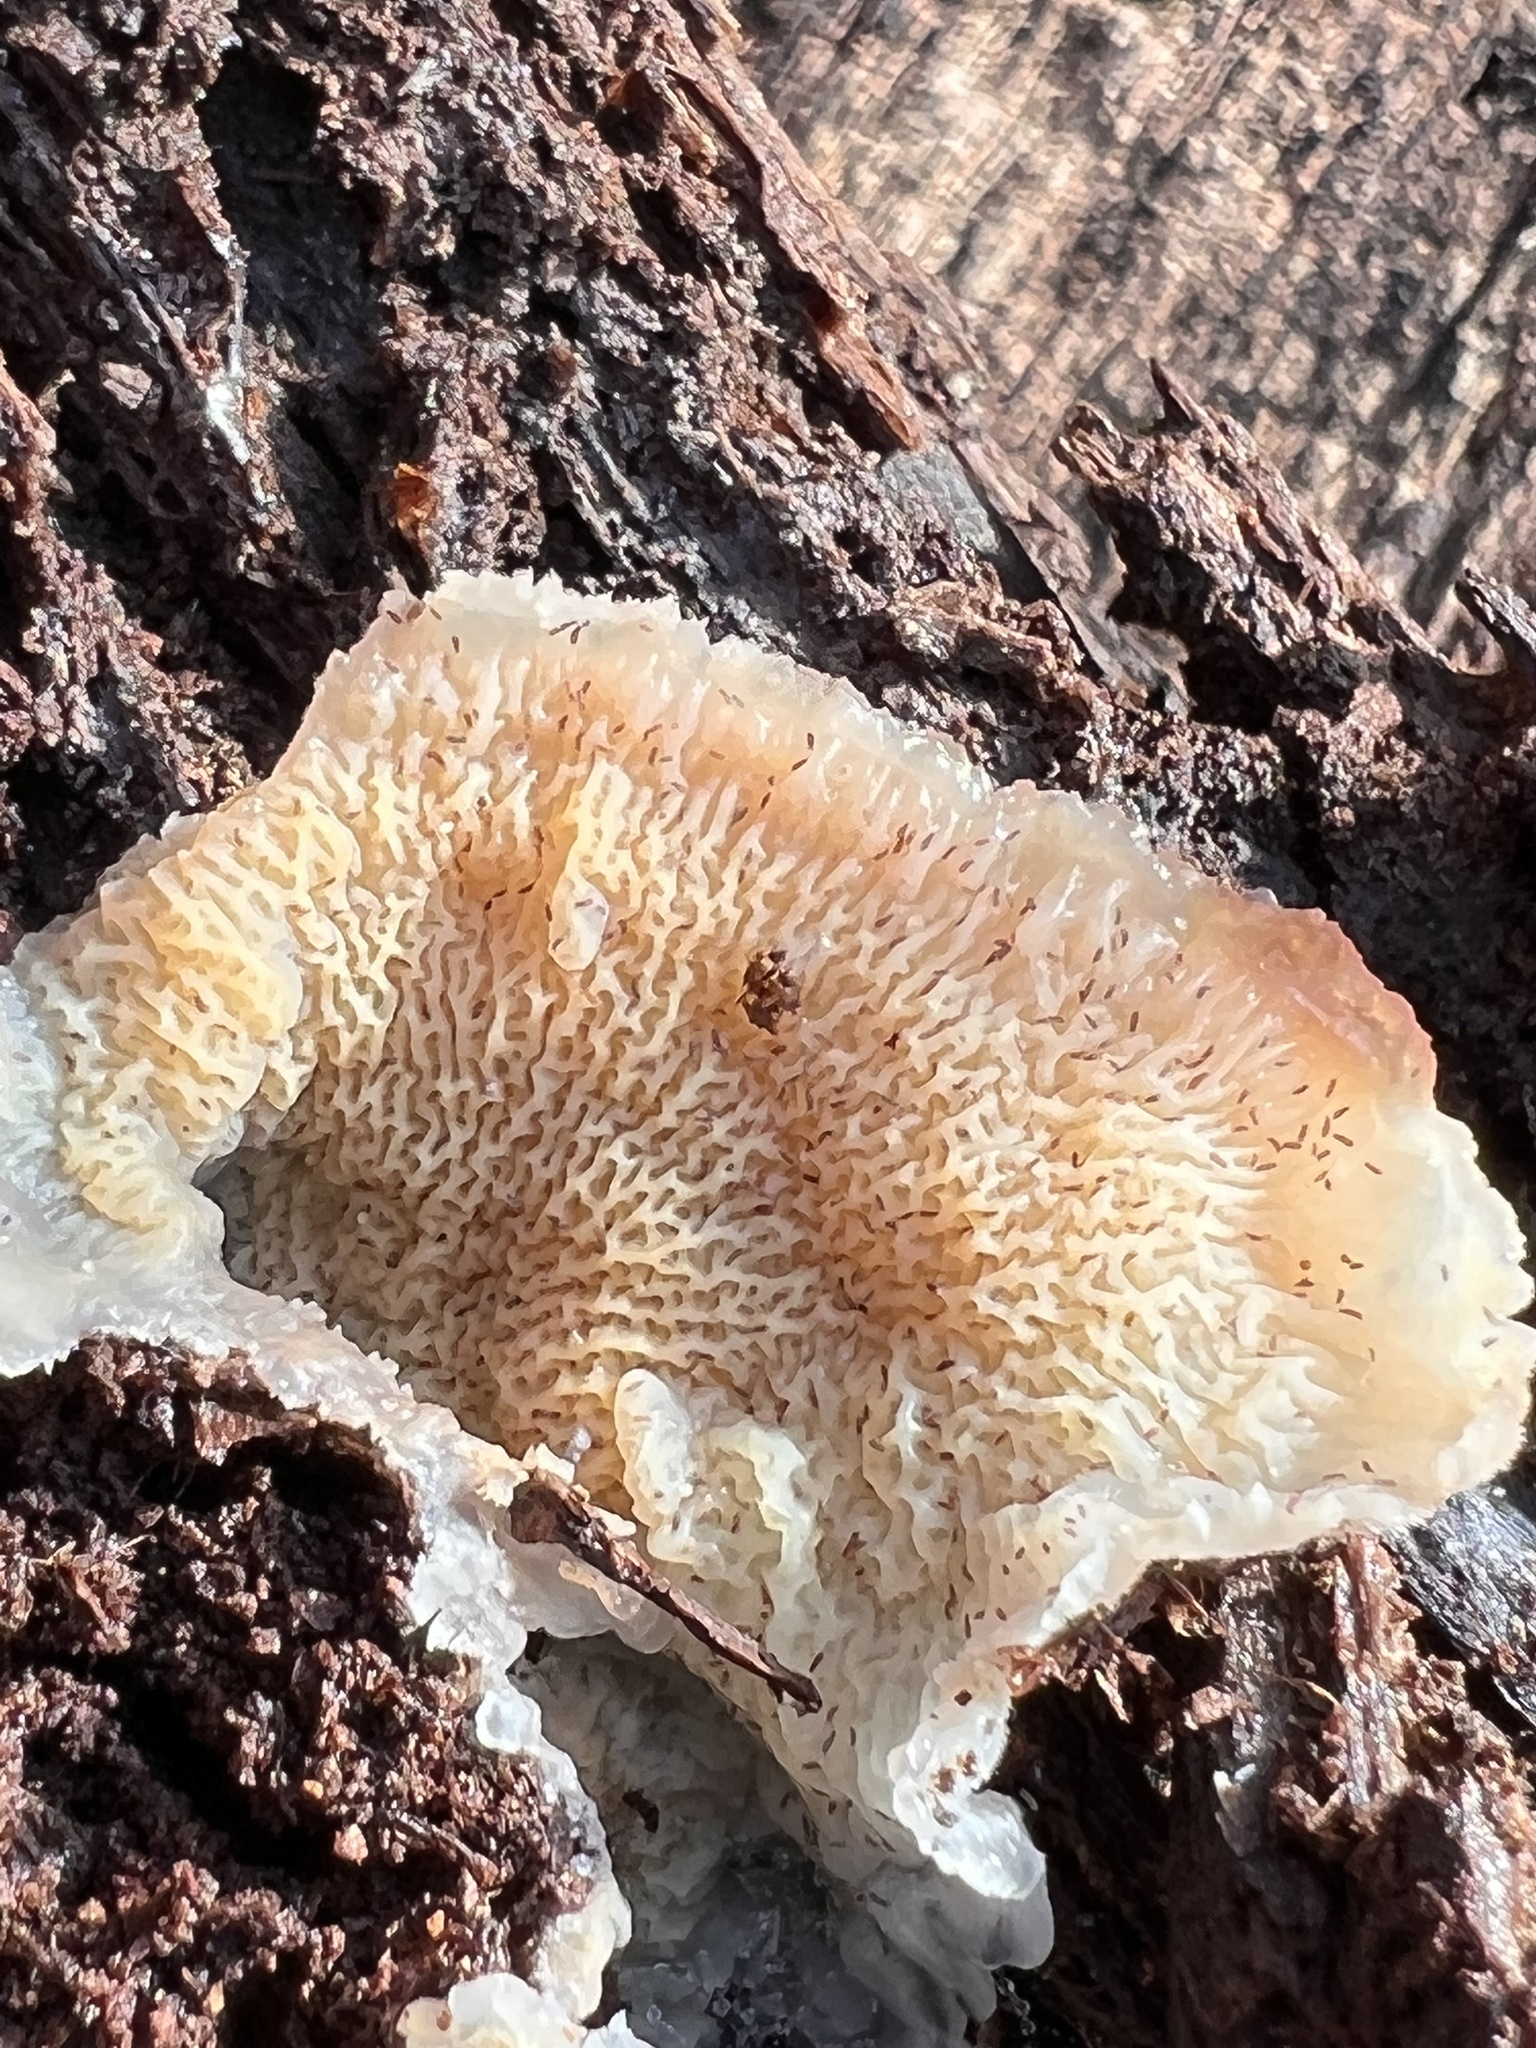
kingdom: Fungi
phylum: Basidiomycota
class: Agaricomycetes
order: Polyporales
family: Meruliaceae
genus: Phlebia
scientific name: Phlebia tremellosa
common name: Jelly rot
